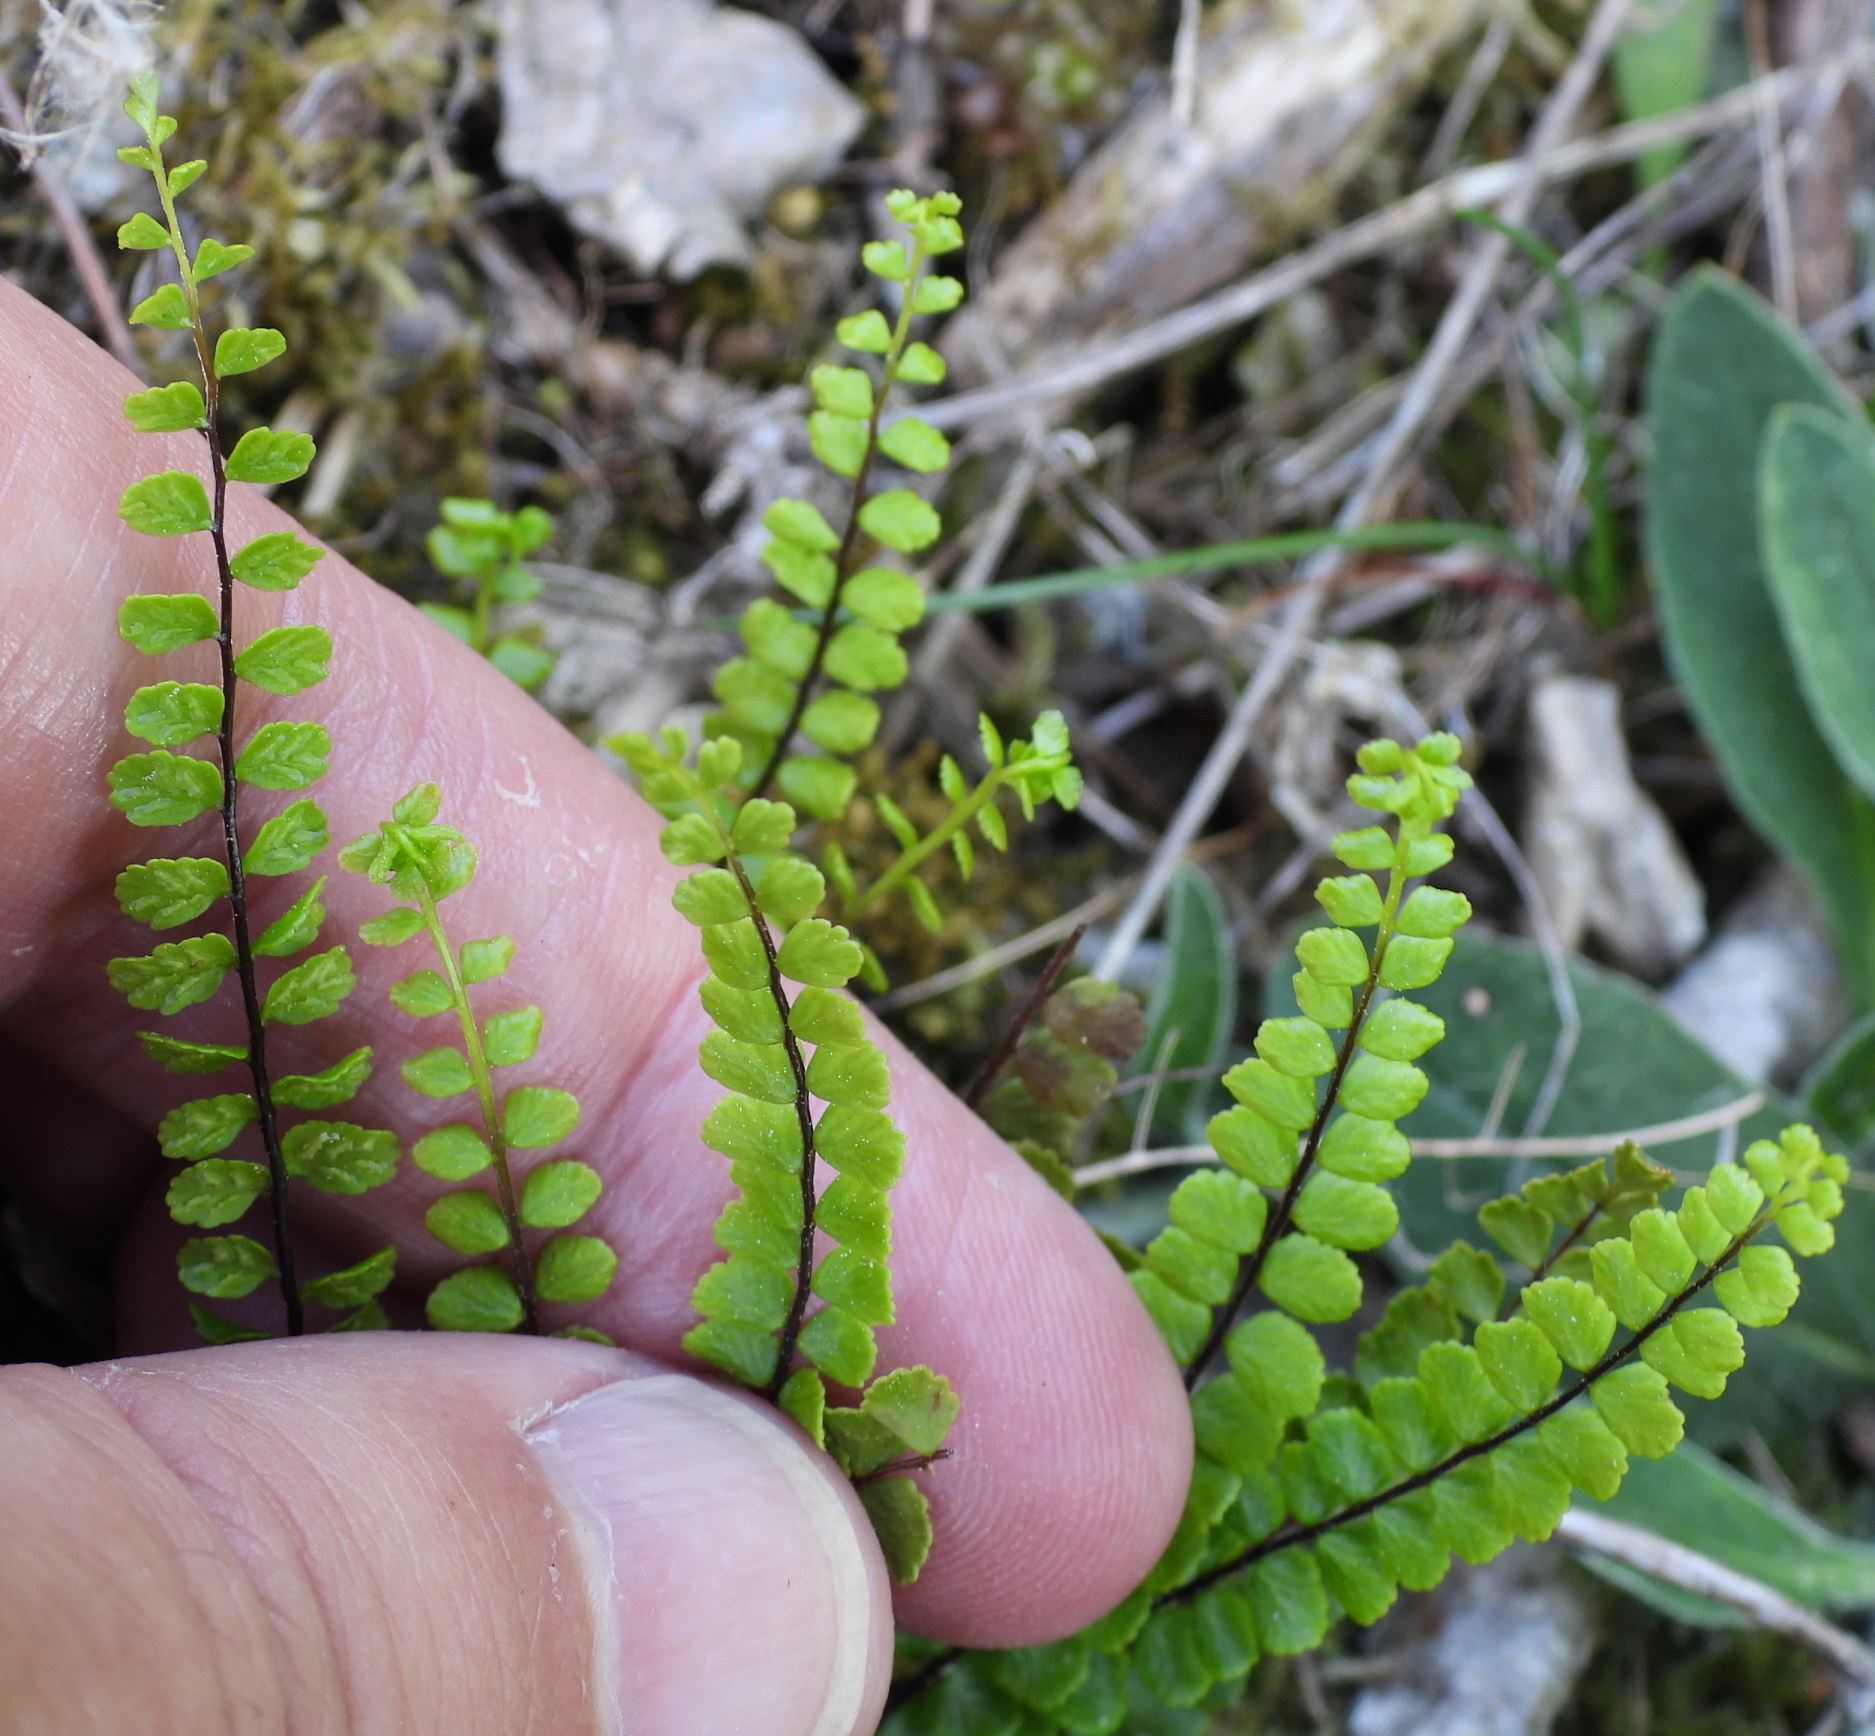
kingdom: Plantae
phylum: Tracheophyta
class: Polypodiopsida
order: Polypodiales
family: Aspleniaceae
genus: Asplenium
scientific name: Asplenium trichomanes
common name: Maidenhair spleenwort
